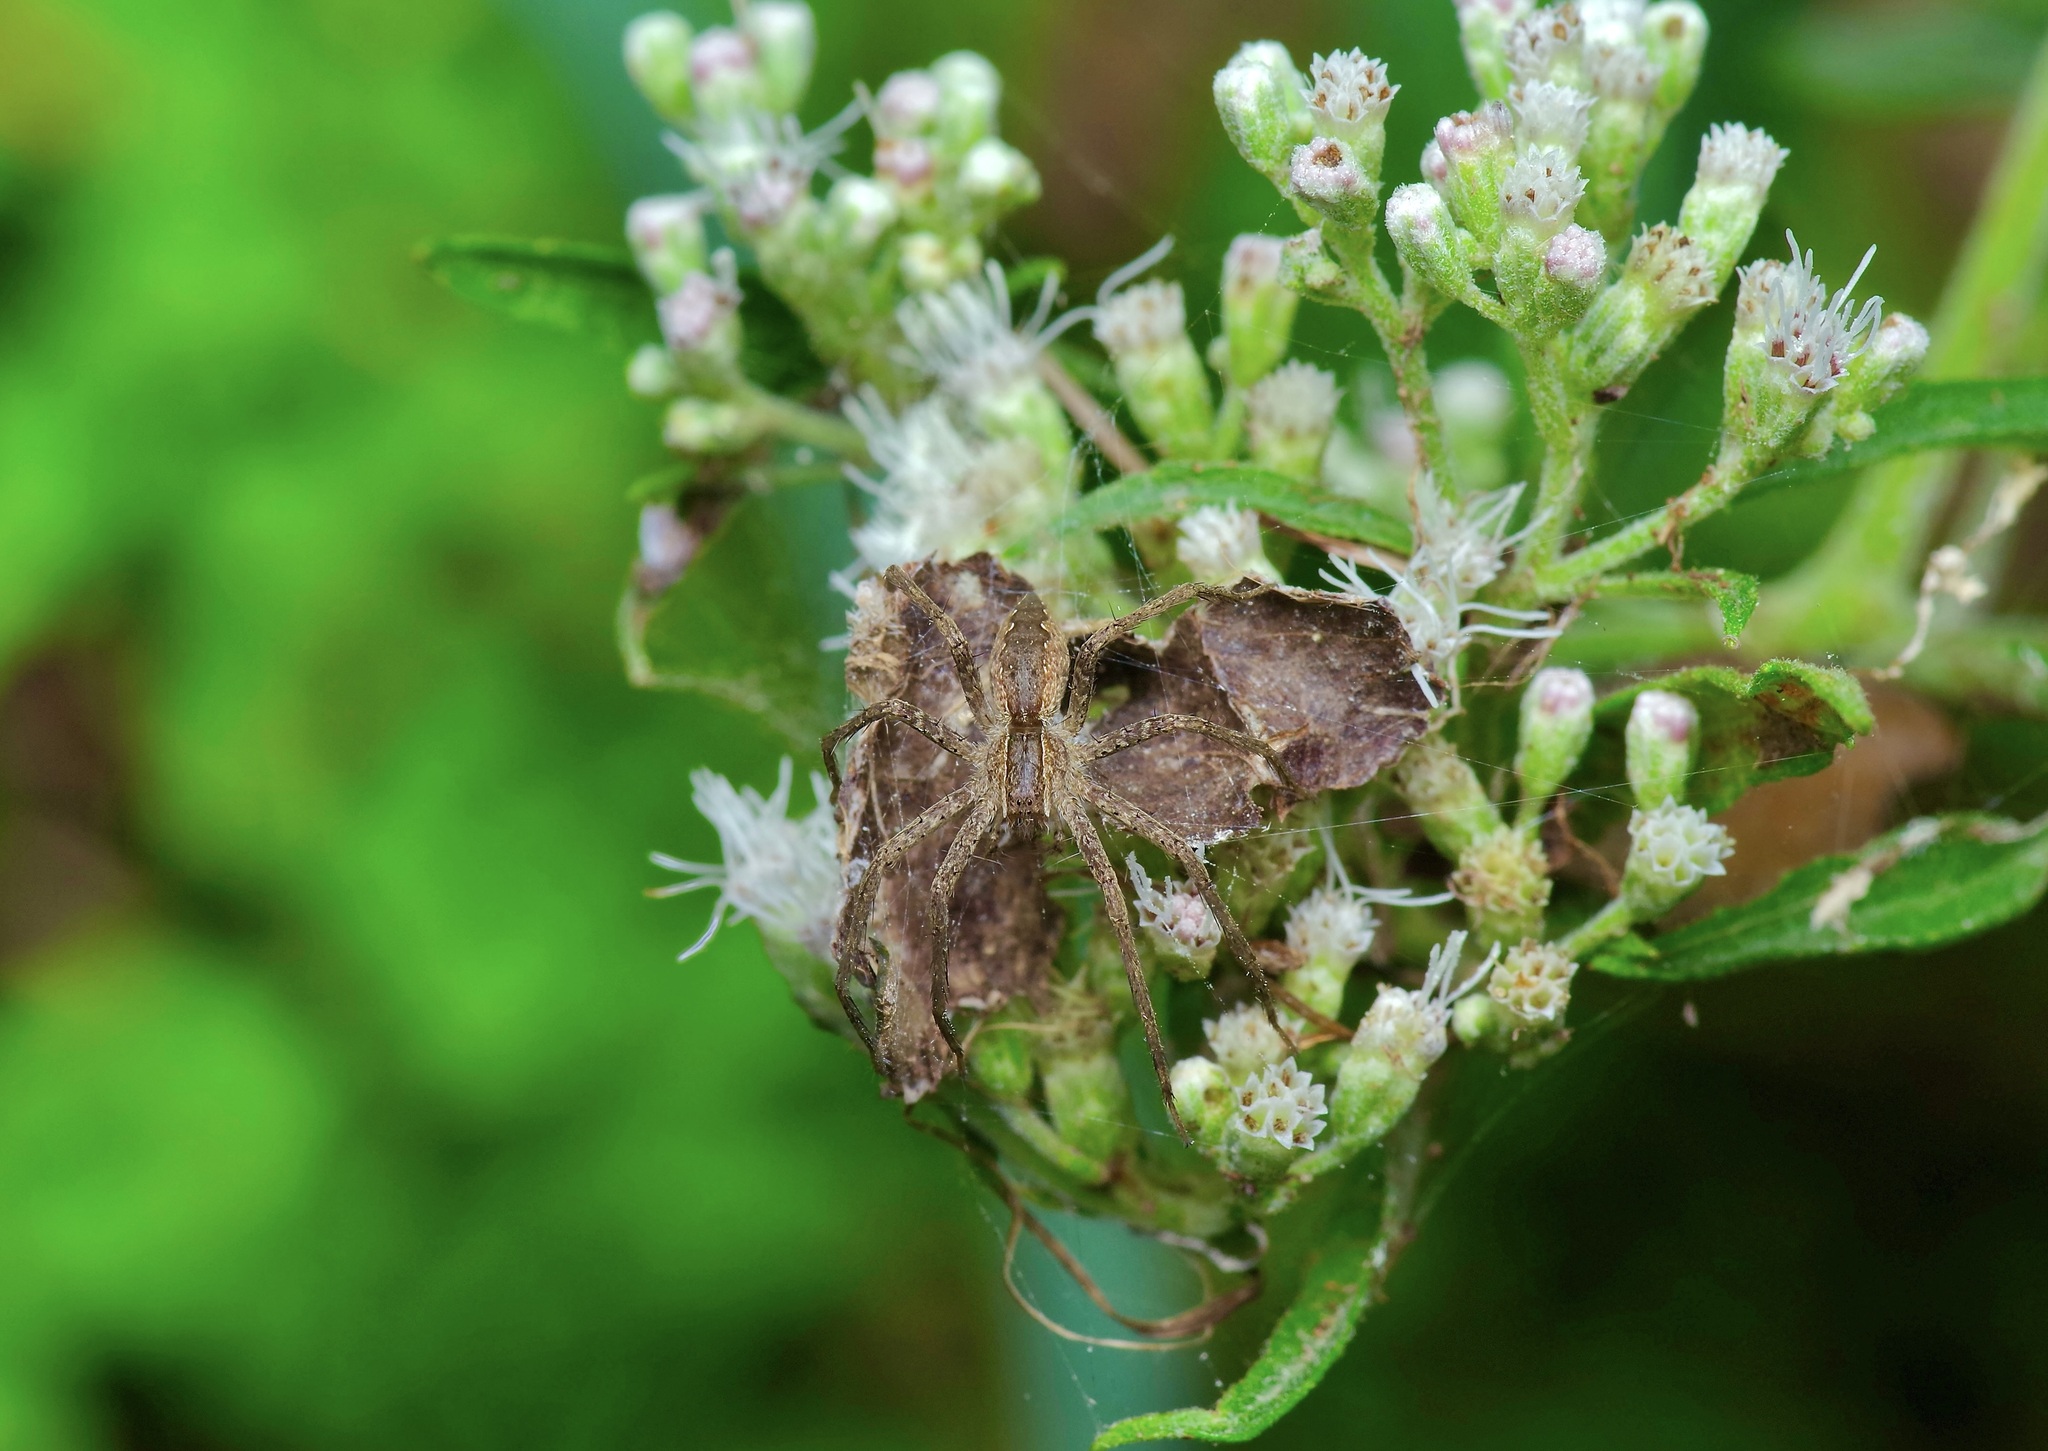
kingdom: Animalia
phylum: Arthropoda
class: Arachnida
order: Araneae
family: Pisauridae
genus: Pisaurina
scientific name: Pisaurina mira
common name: American nursery web spider
